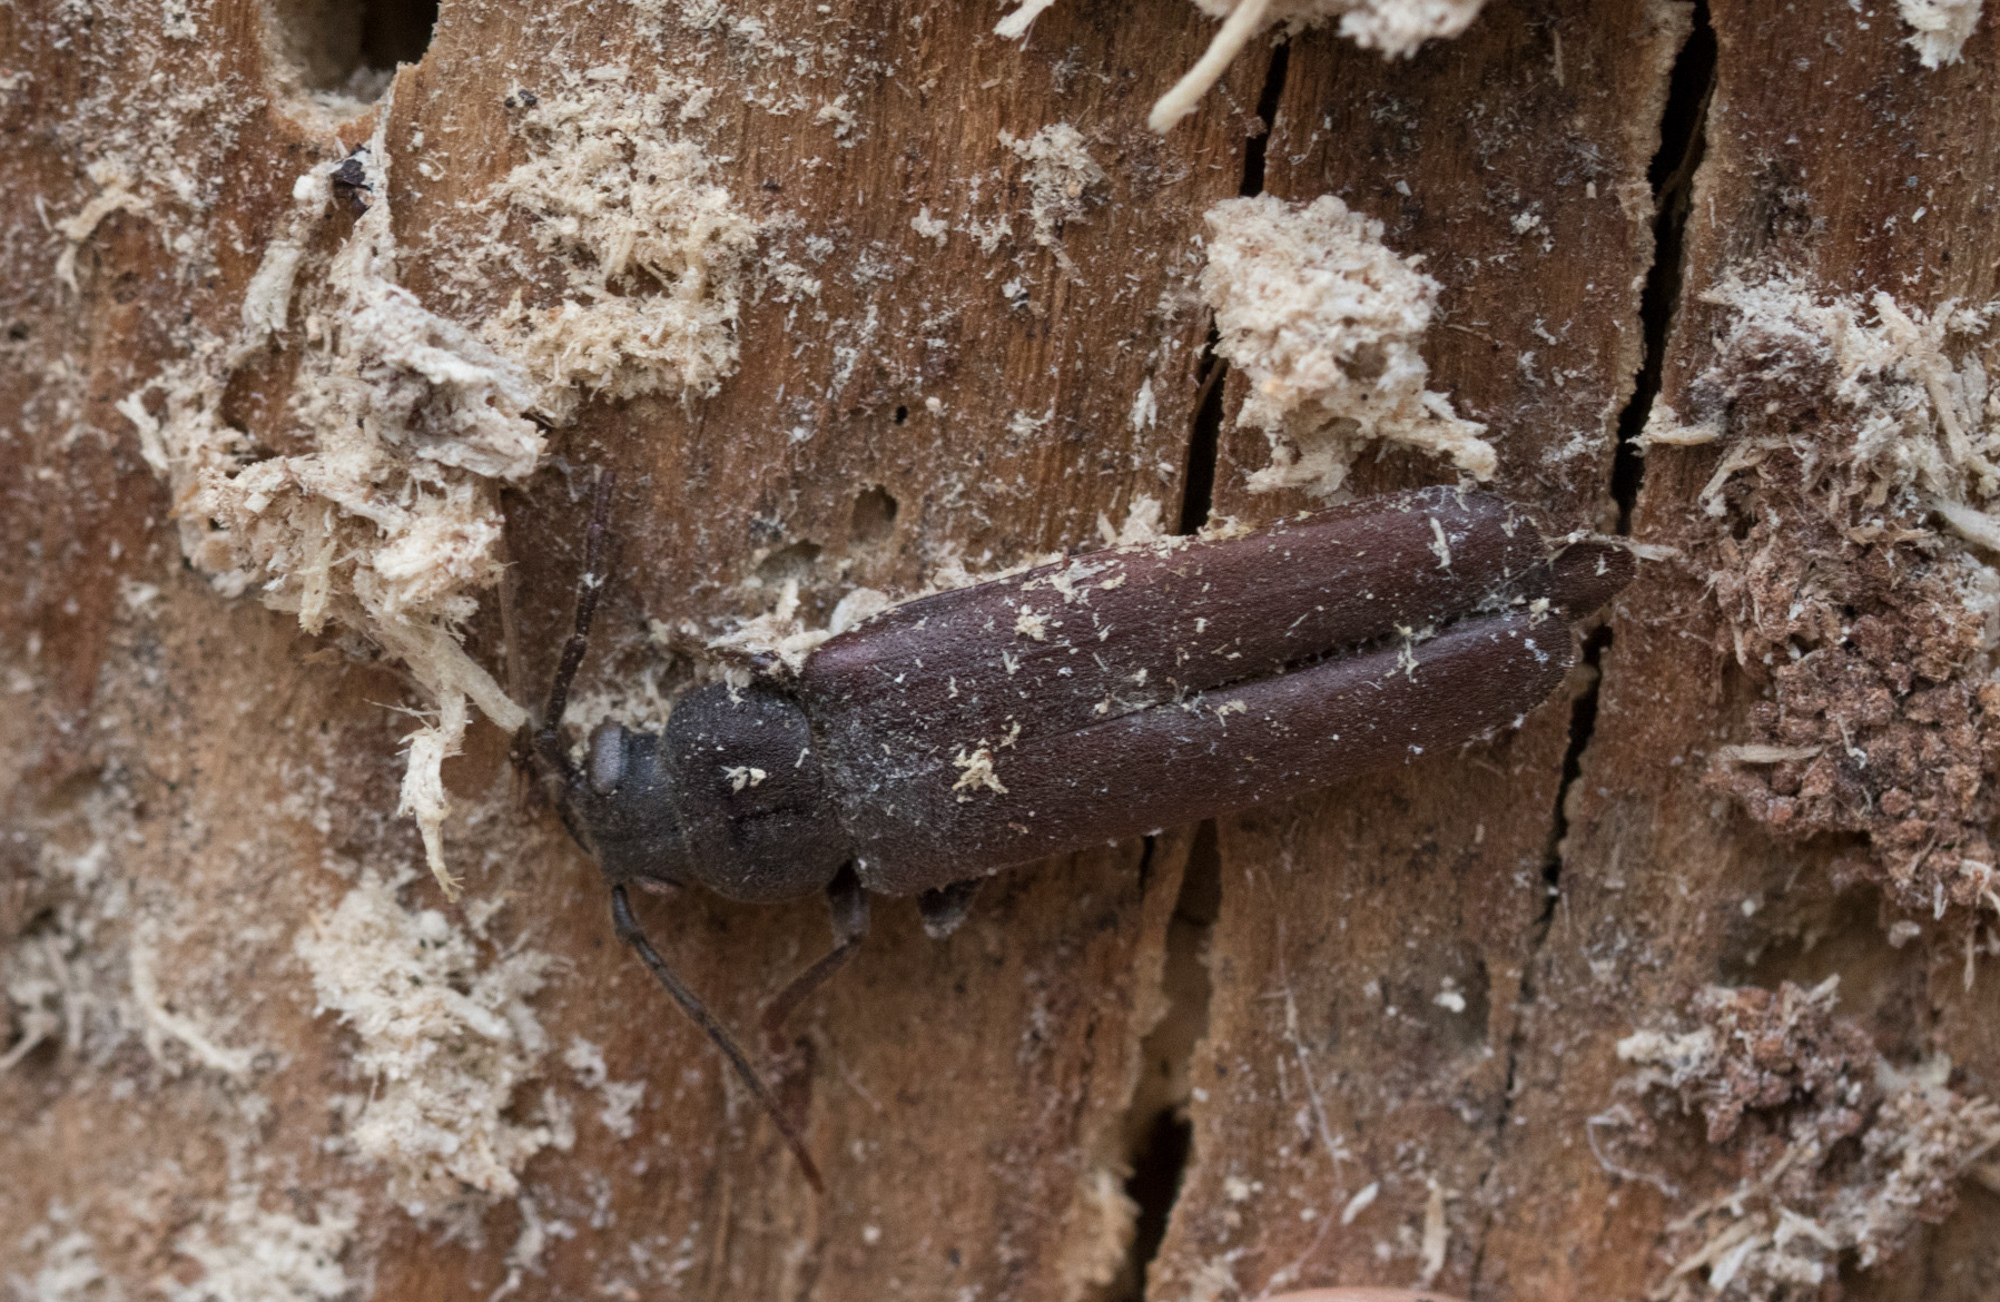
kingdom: Animalia
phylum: Arthropoda
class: Insecta
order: Coleoptera
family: Cerambycidae
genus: Arhopalus
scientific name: Arhopalus rusticus
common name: Rust pine borer
